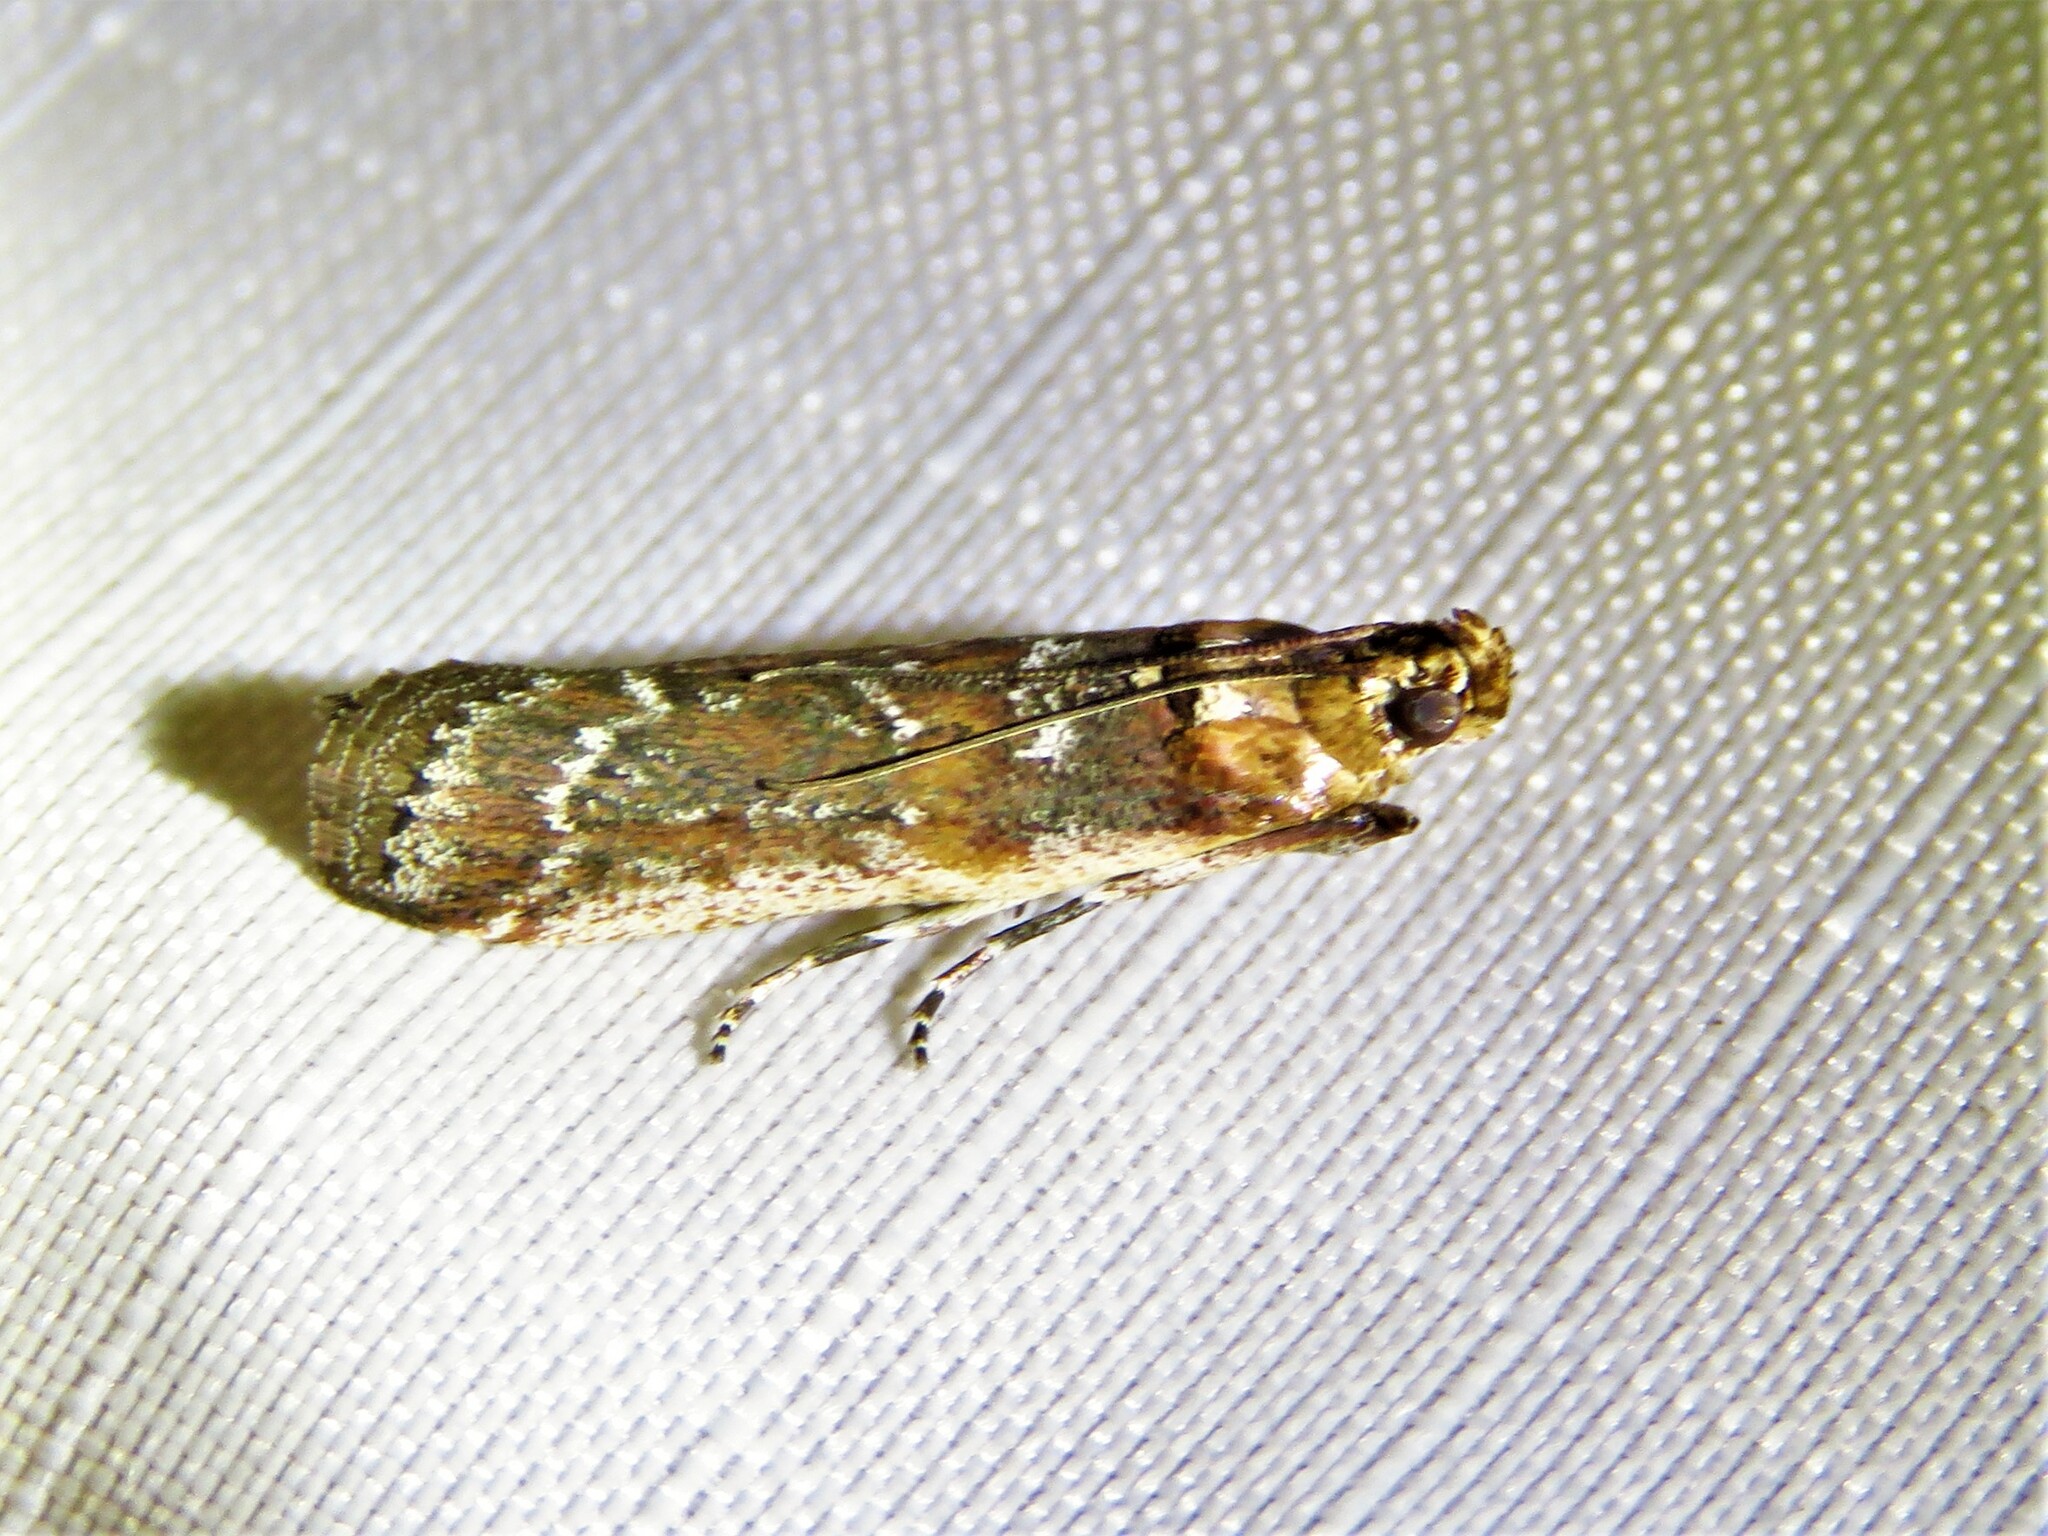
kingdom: Animalia
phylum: Arthropoda
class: Insecta
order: Lepidoptera
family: Pyralidae
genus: Adelphia
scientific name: Adelphia petrella
